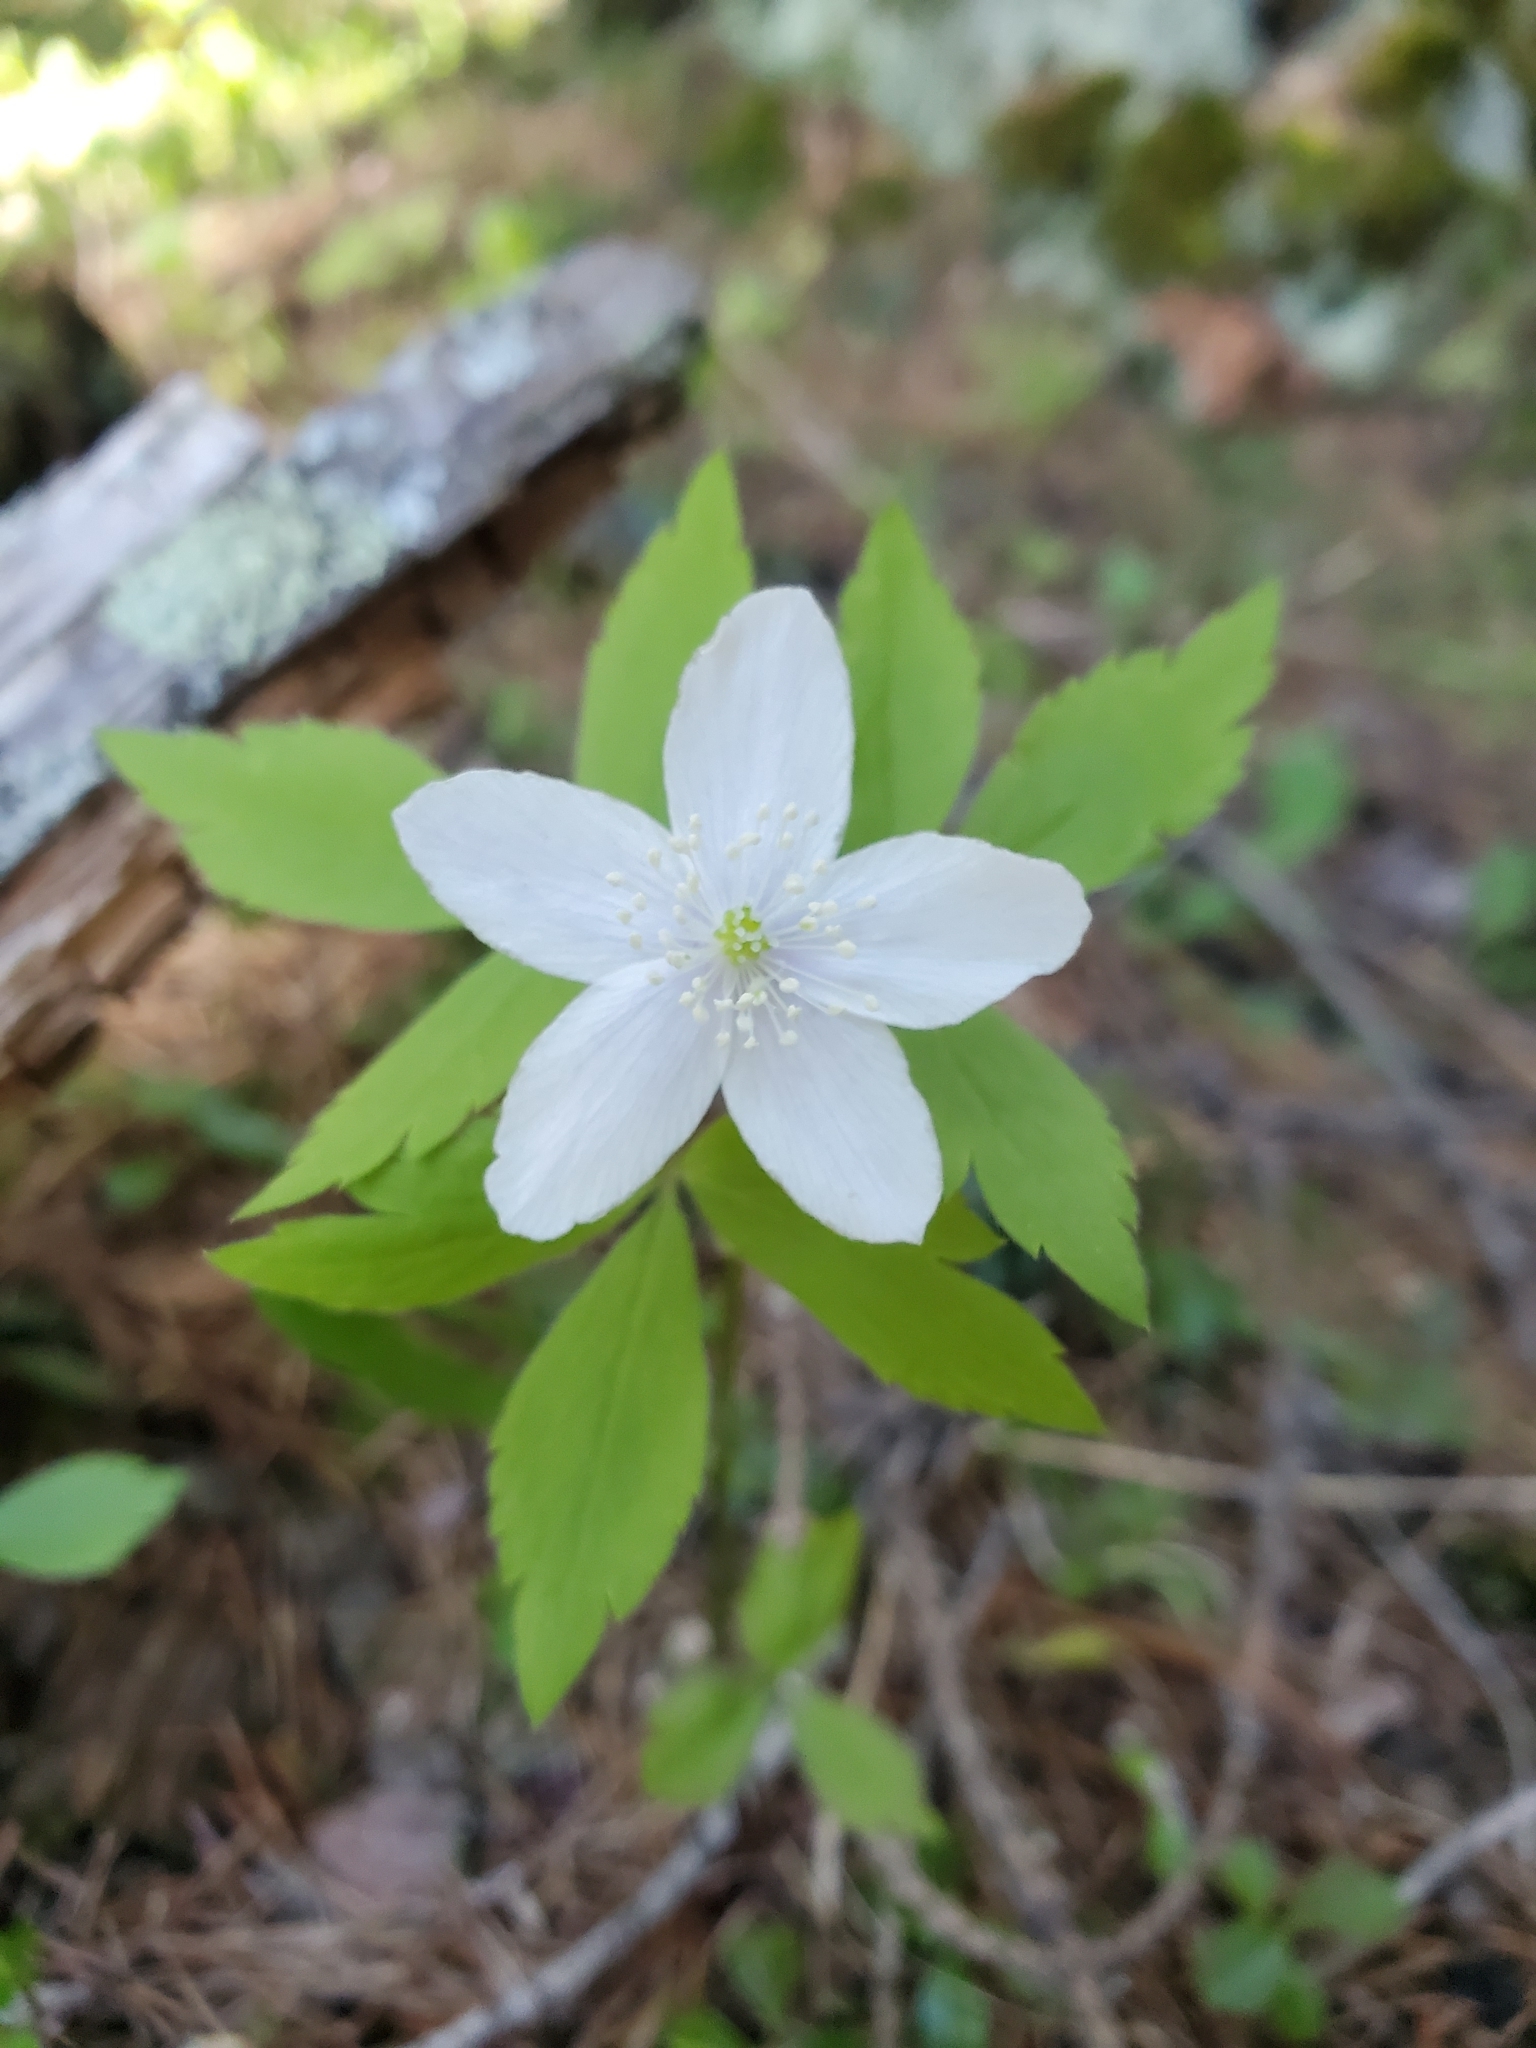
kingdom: Plantae
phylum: Tracheophyta
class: Magnoliopsida
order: Ranunculales
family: Ranunculaceae
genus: Anemone
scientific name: Anemone piperi
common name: Piper's anemone
